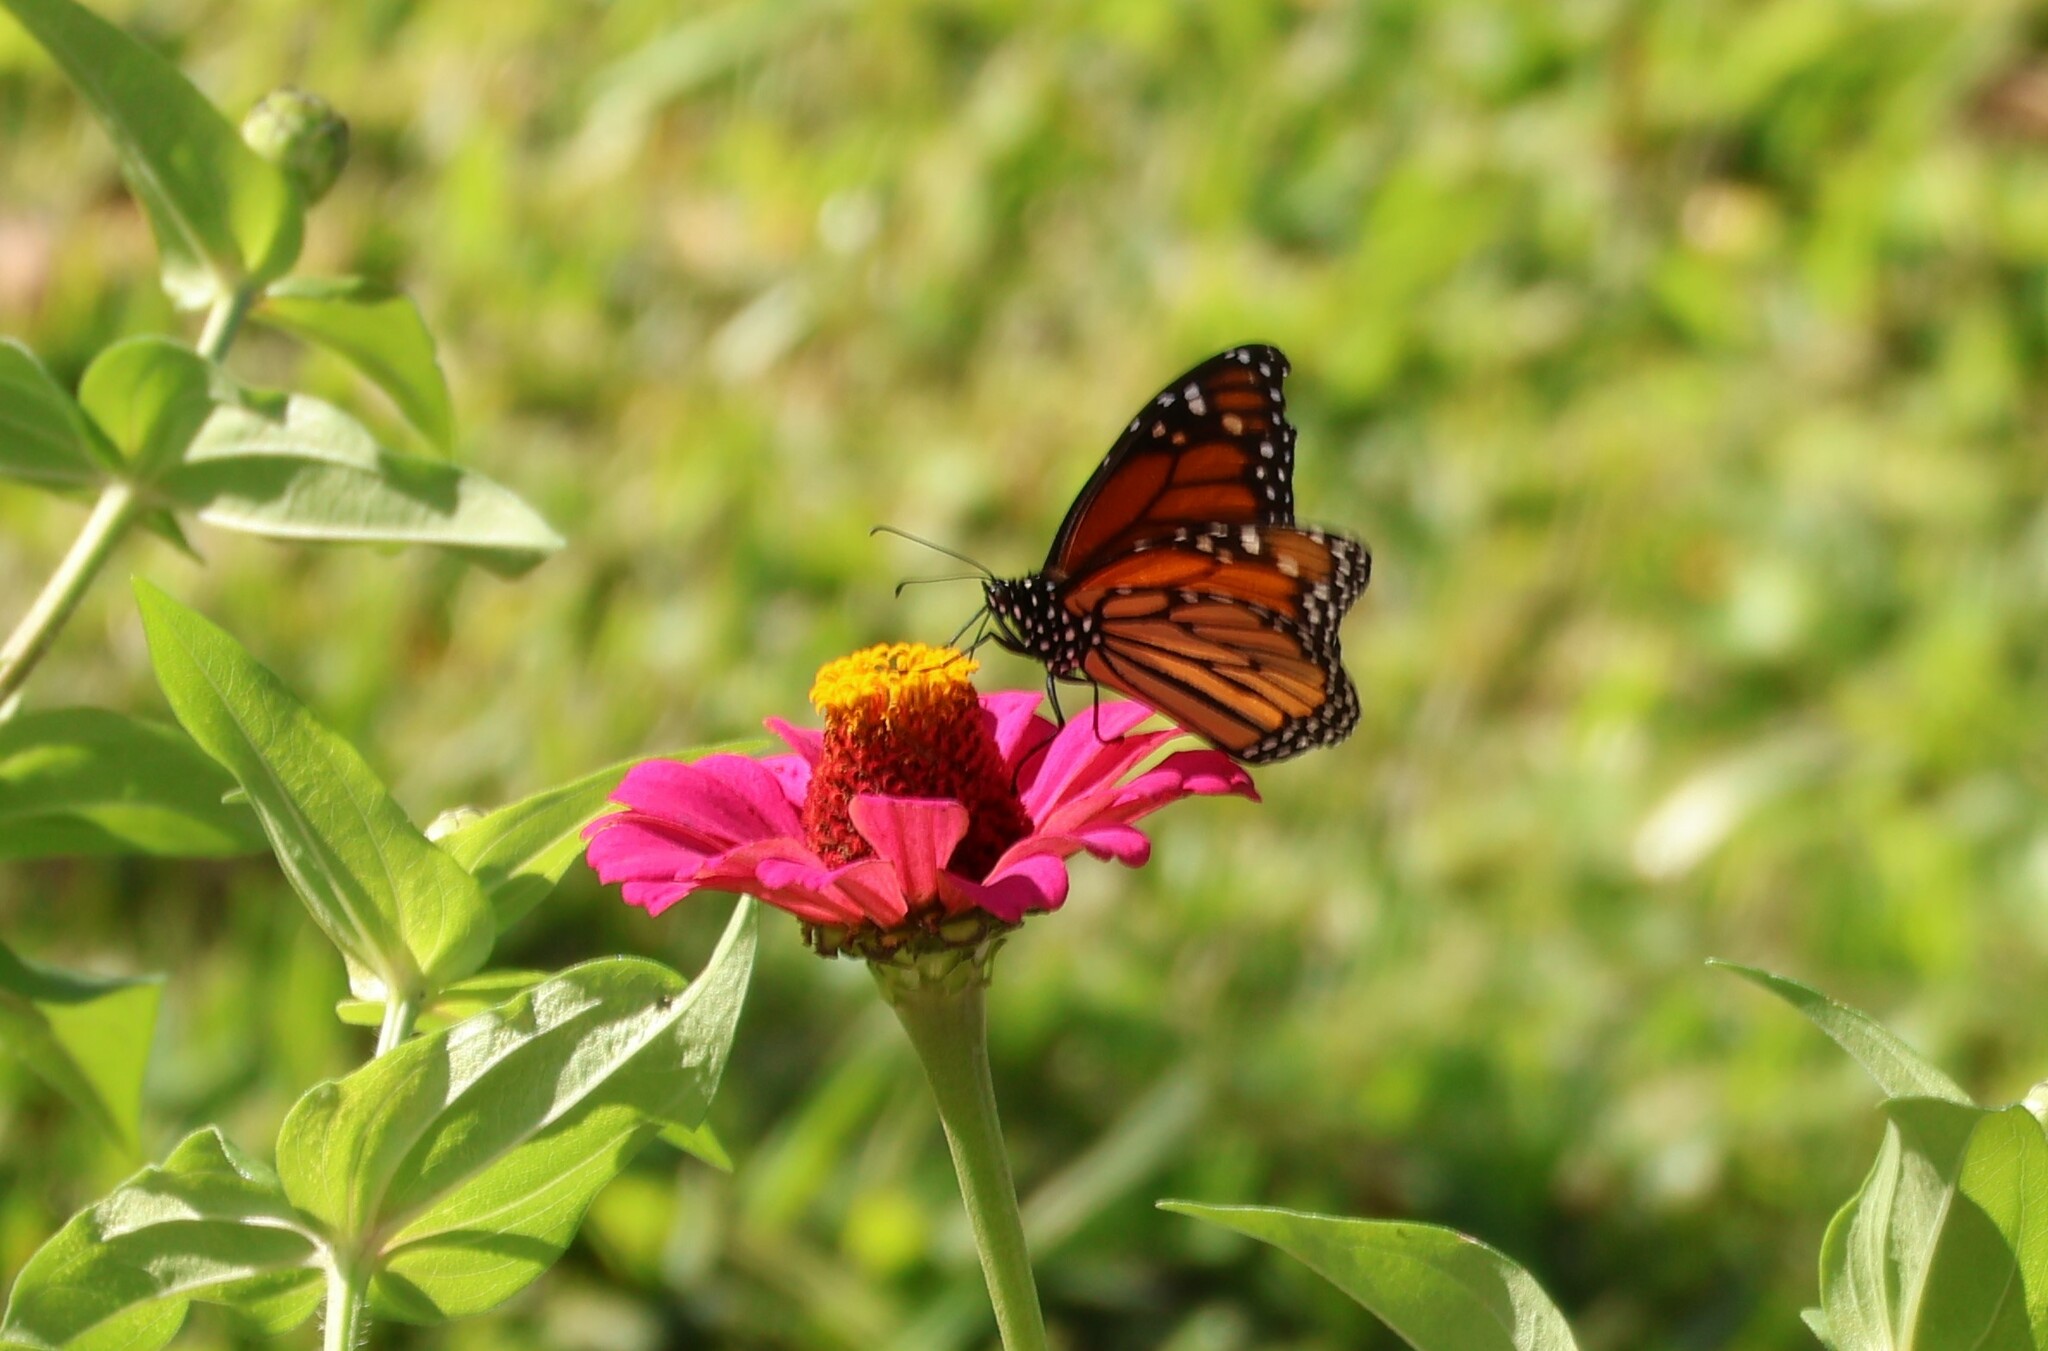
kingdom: Animalia
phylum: Arthropoda
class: Insecta
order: Lepidoptera
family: Nymphalidae
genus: Danaus
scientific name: Danaus plexippus
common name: Monarch
